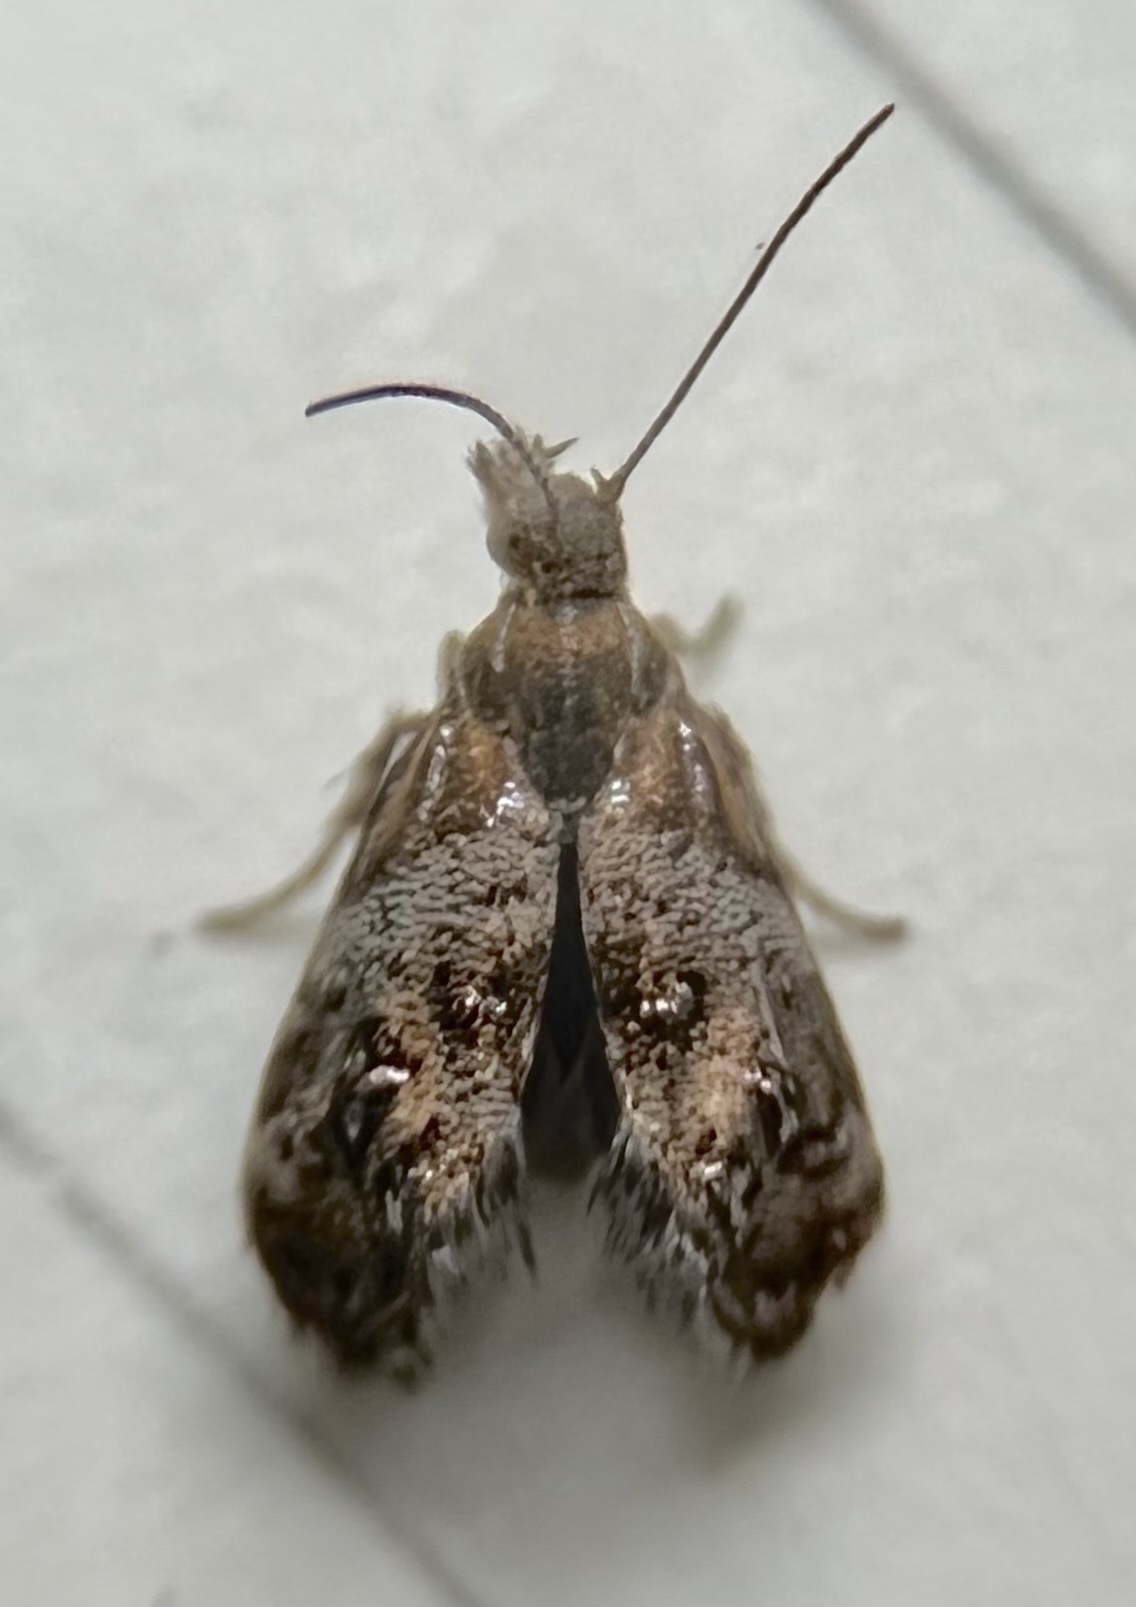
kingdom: Animalia
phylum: Arthropoda
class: Insecta
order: Lepidoptera
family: Choreutidae
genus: Tebenna
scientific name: Tebenna gnaphaliella
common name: Everlasting tebenna moth
